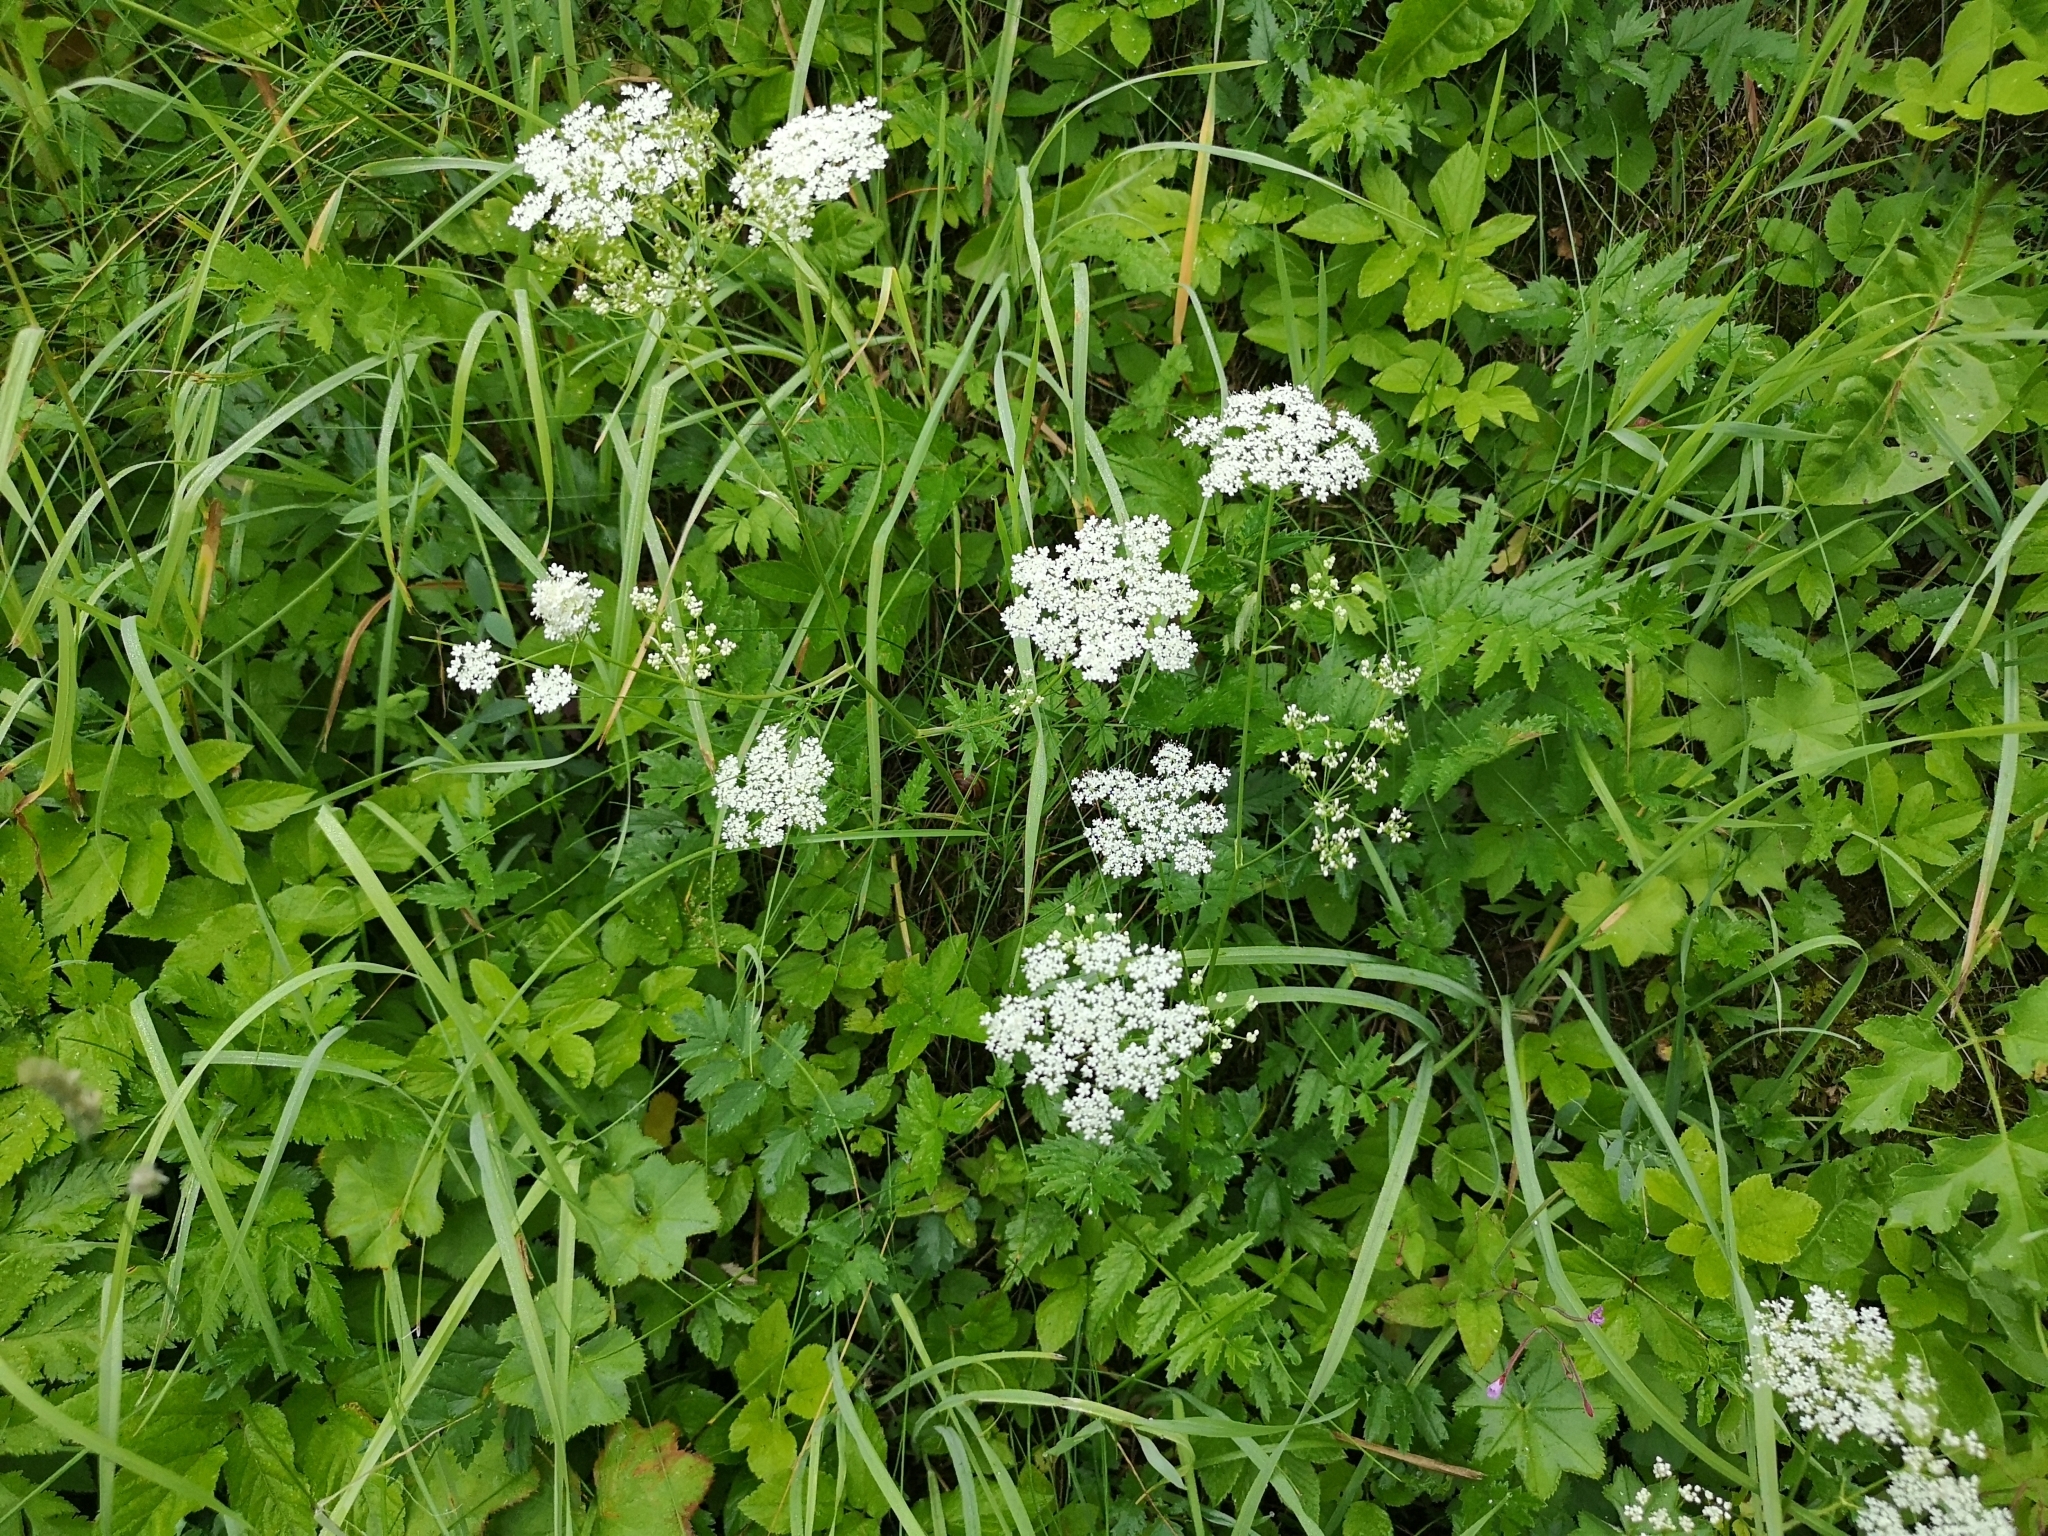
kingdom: Plantae
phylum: Tracheophyta
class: Magnoliopsida
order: Apiales
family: Apiaceae
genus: Pimpinella
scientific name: Pimpinella major
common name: Greater burnet-saxifrage
